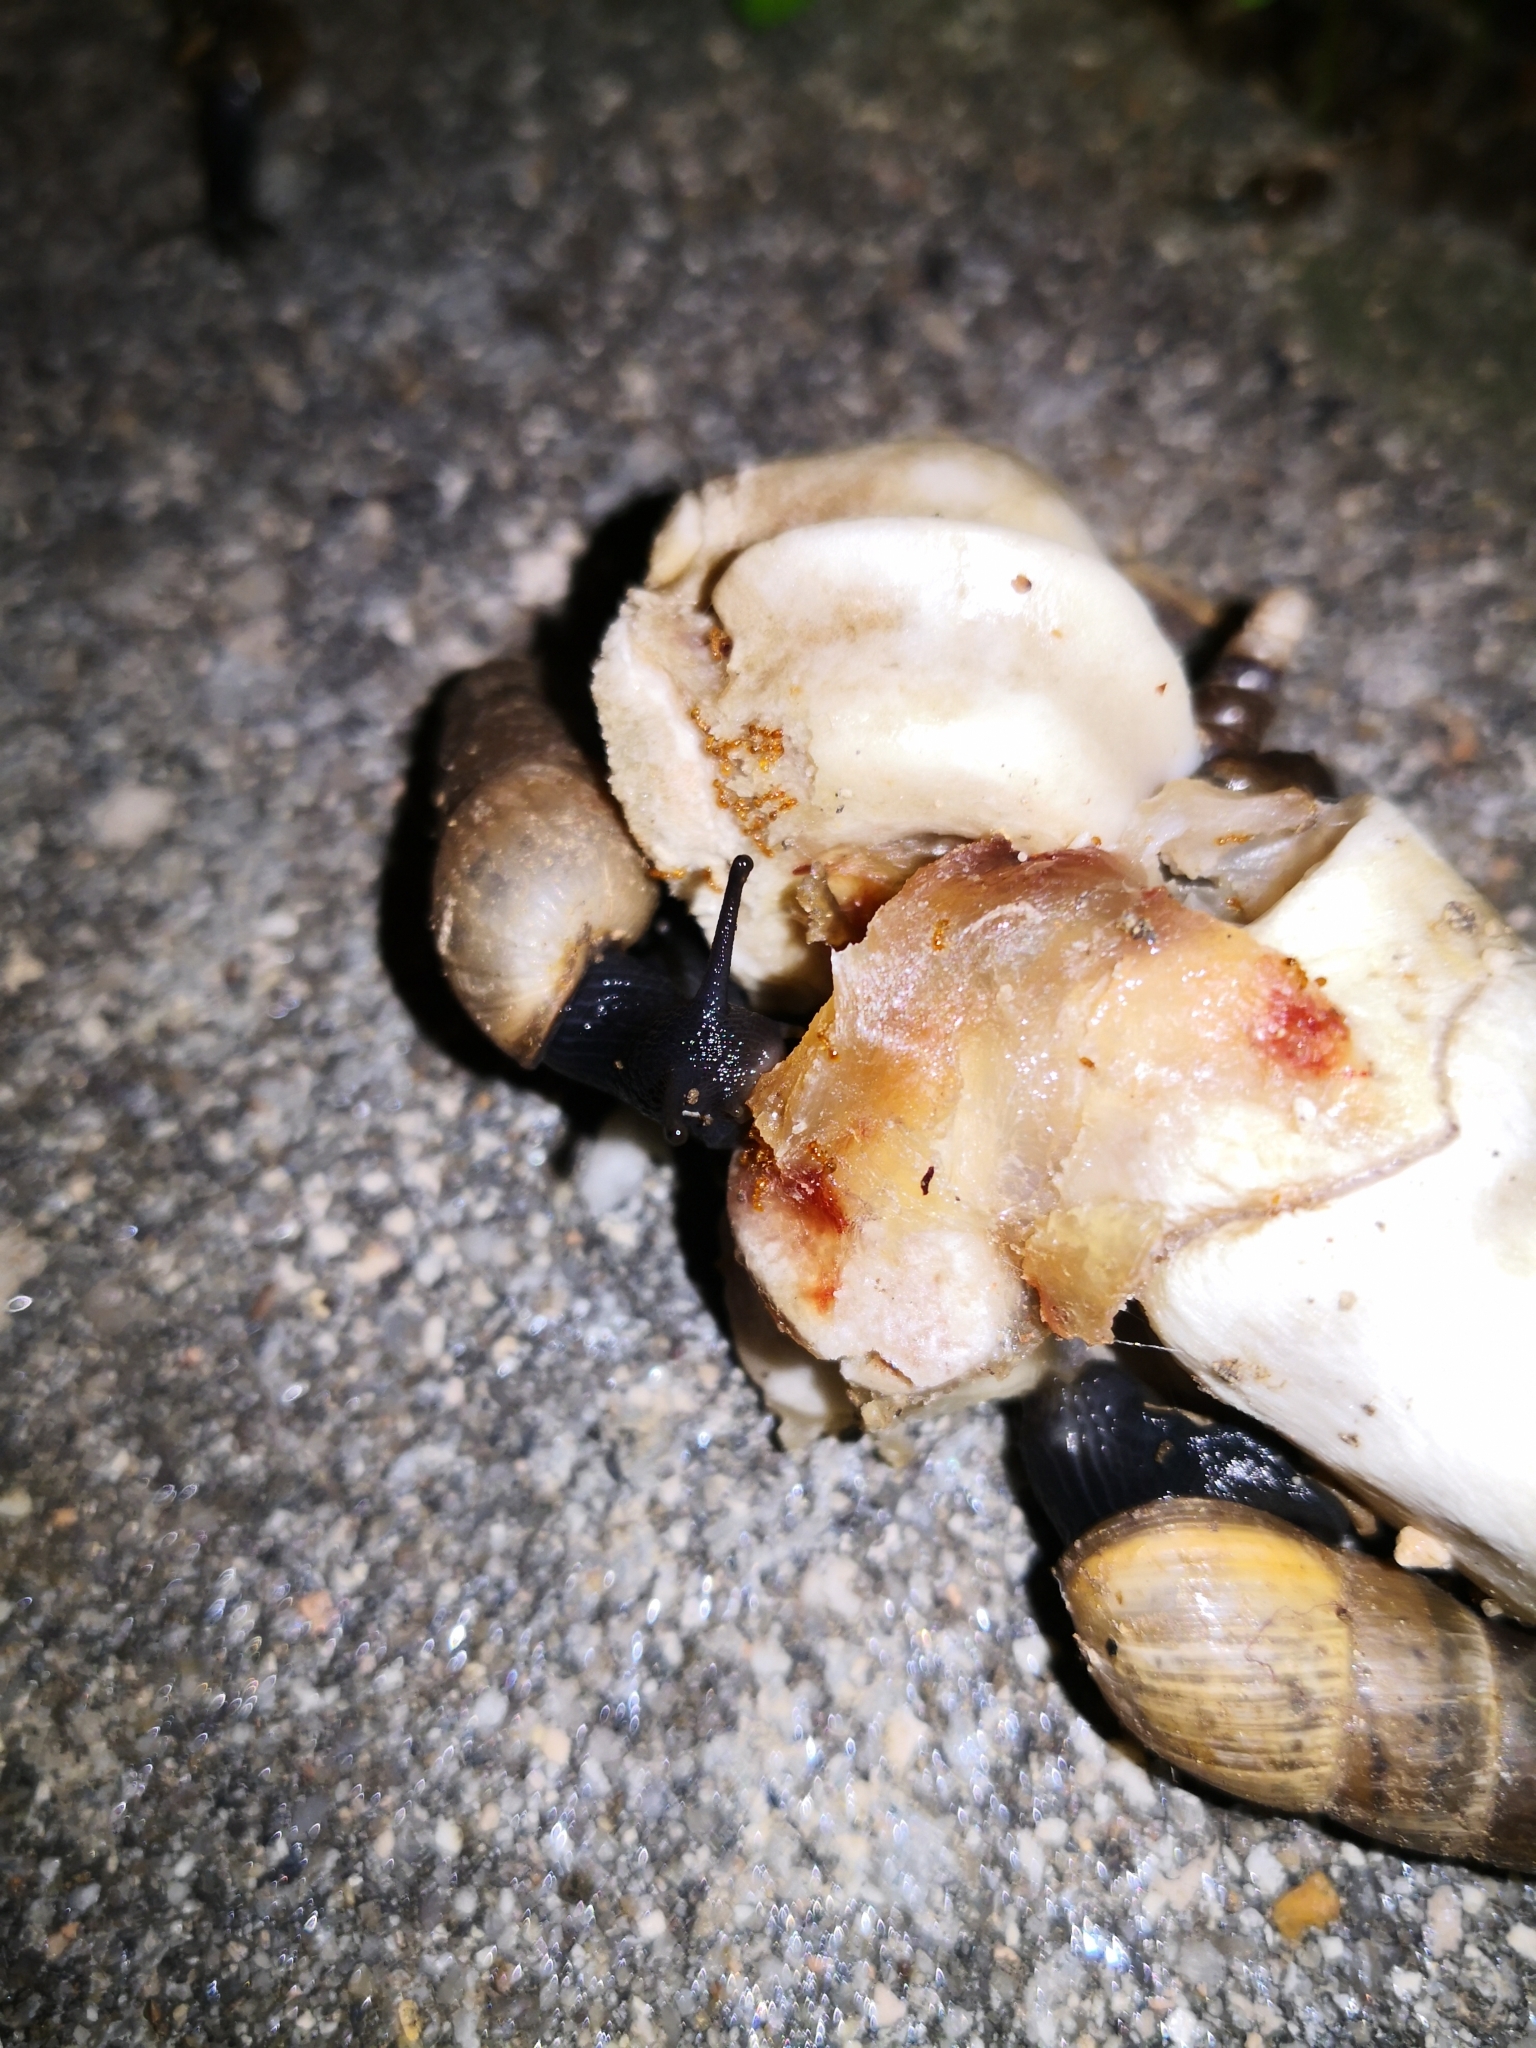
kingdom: Animalia
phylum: Mollusca
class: Gastropoda
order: Stylommatophora
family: Achatinidae
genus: Rumina
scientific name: Rumina decollata
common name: Decollate snail
